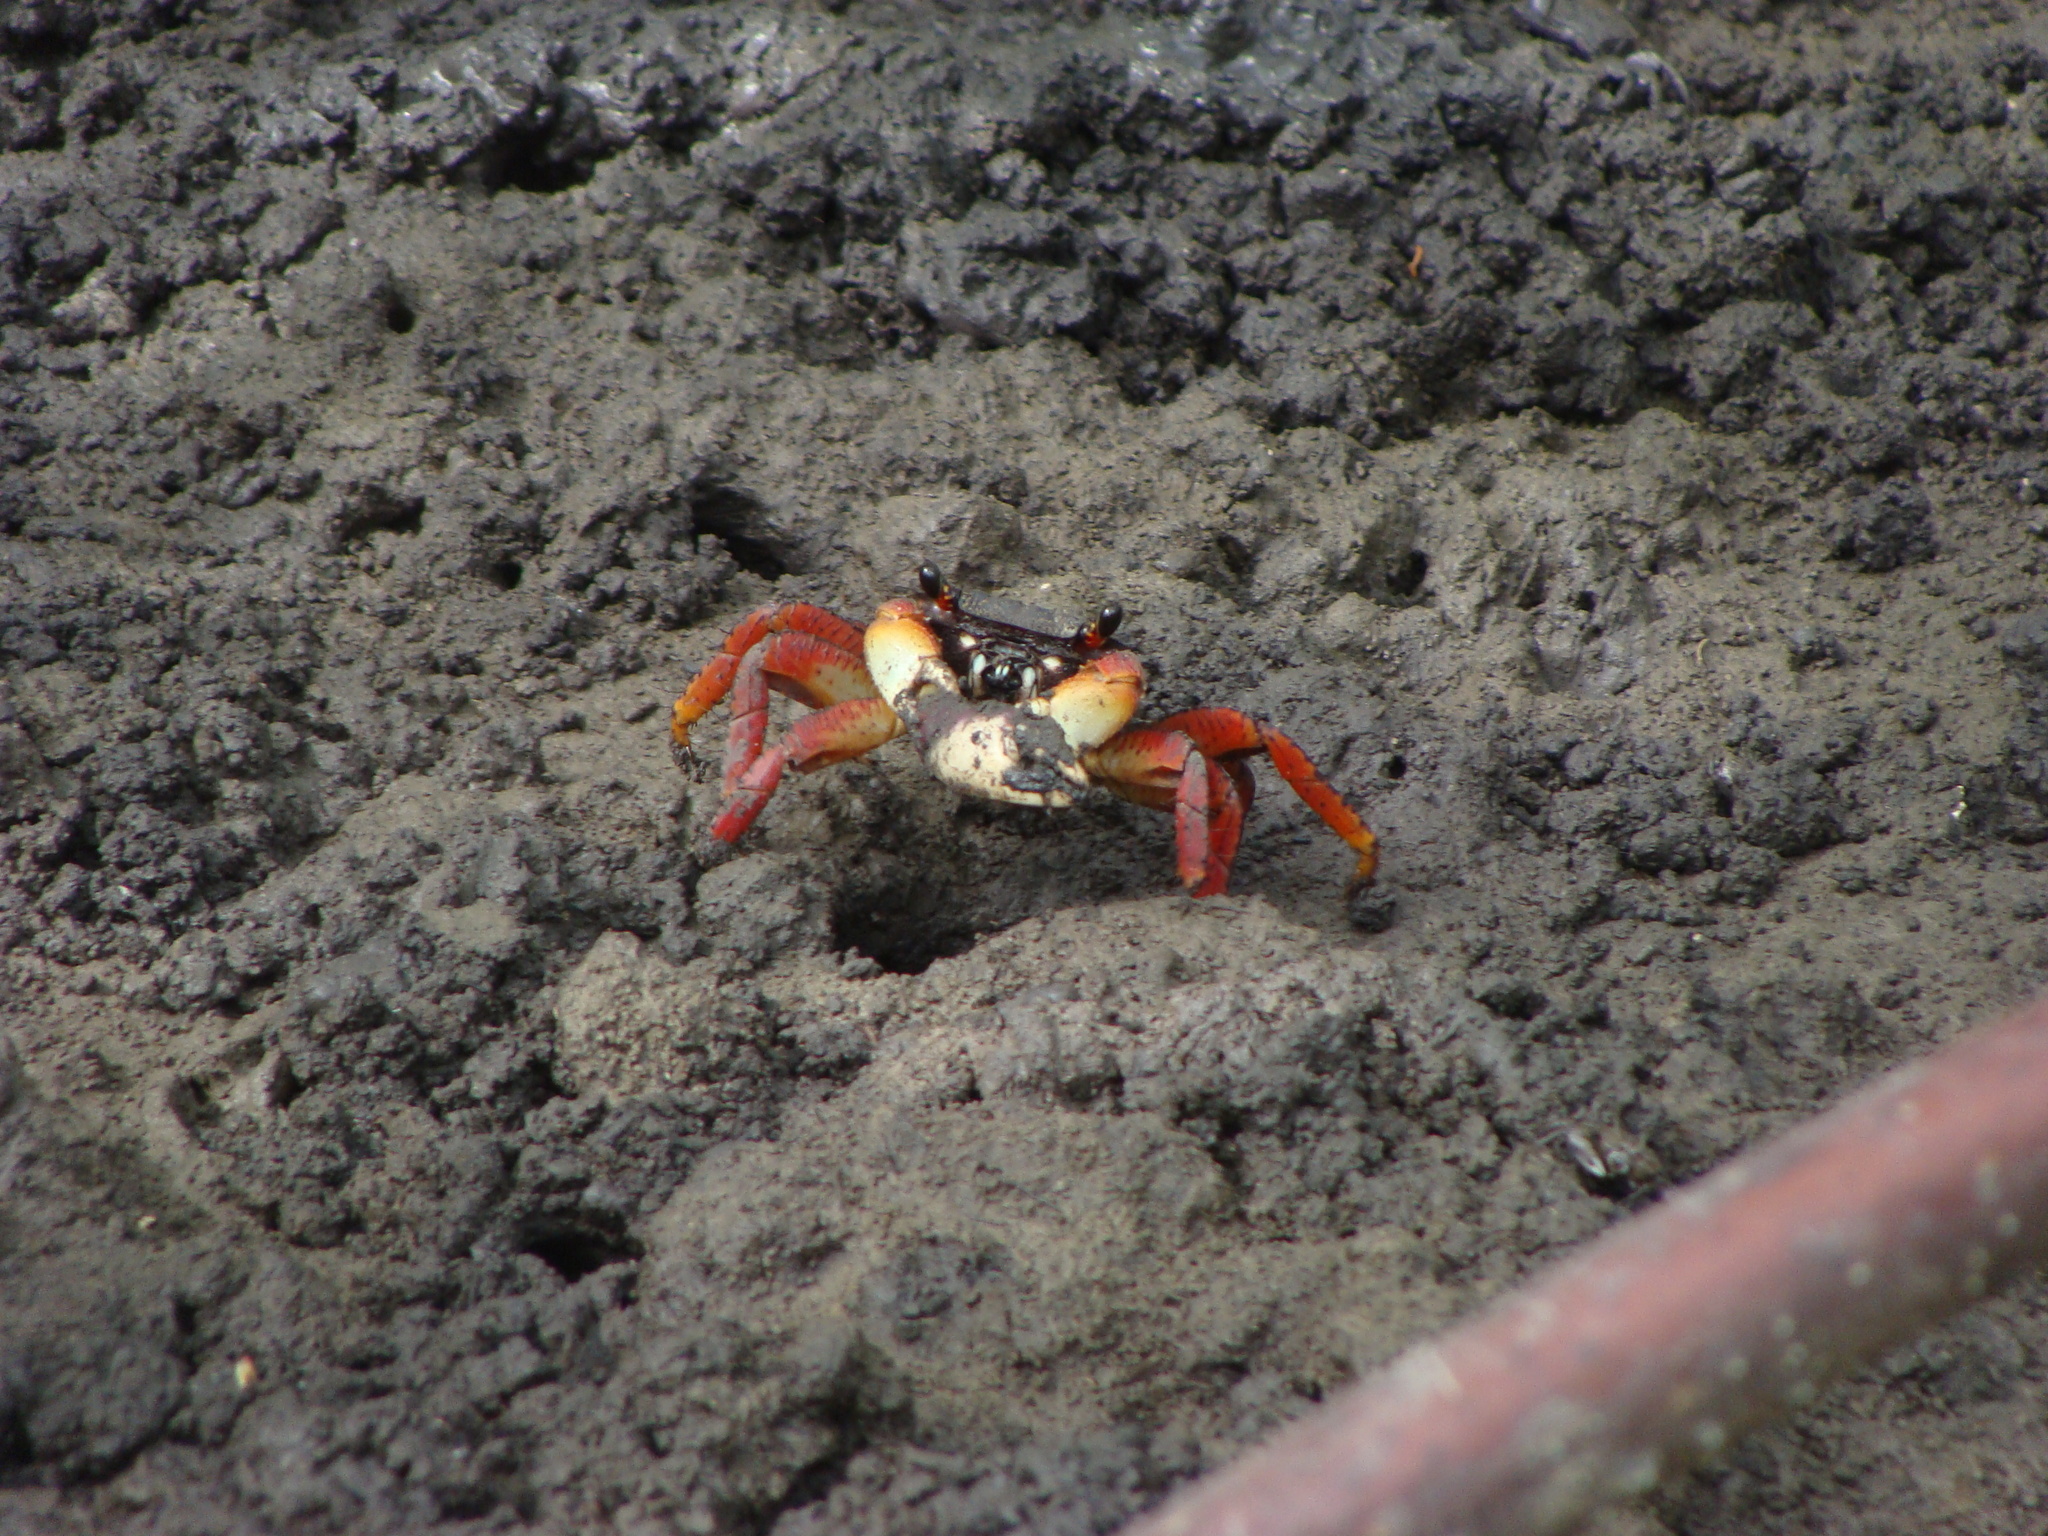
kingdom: Animalia
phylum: Arthropoda
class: Malacostraca
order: Decapoda
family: Grapsidae
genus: Goniopsis
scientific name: Goniopsis cruentata
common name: Mangrove crab
